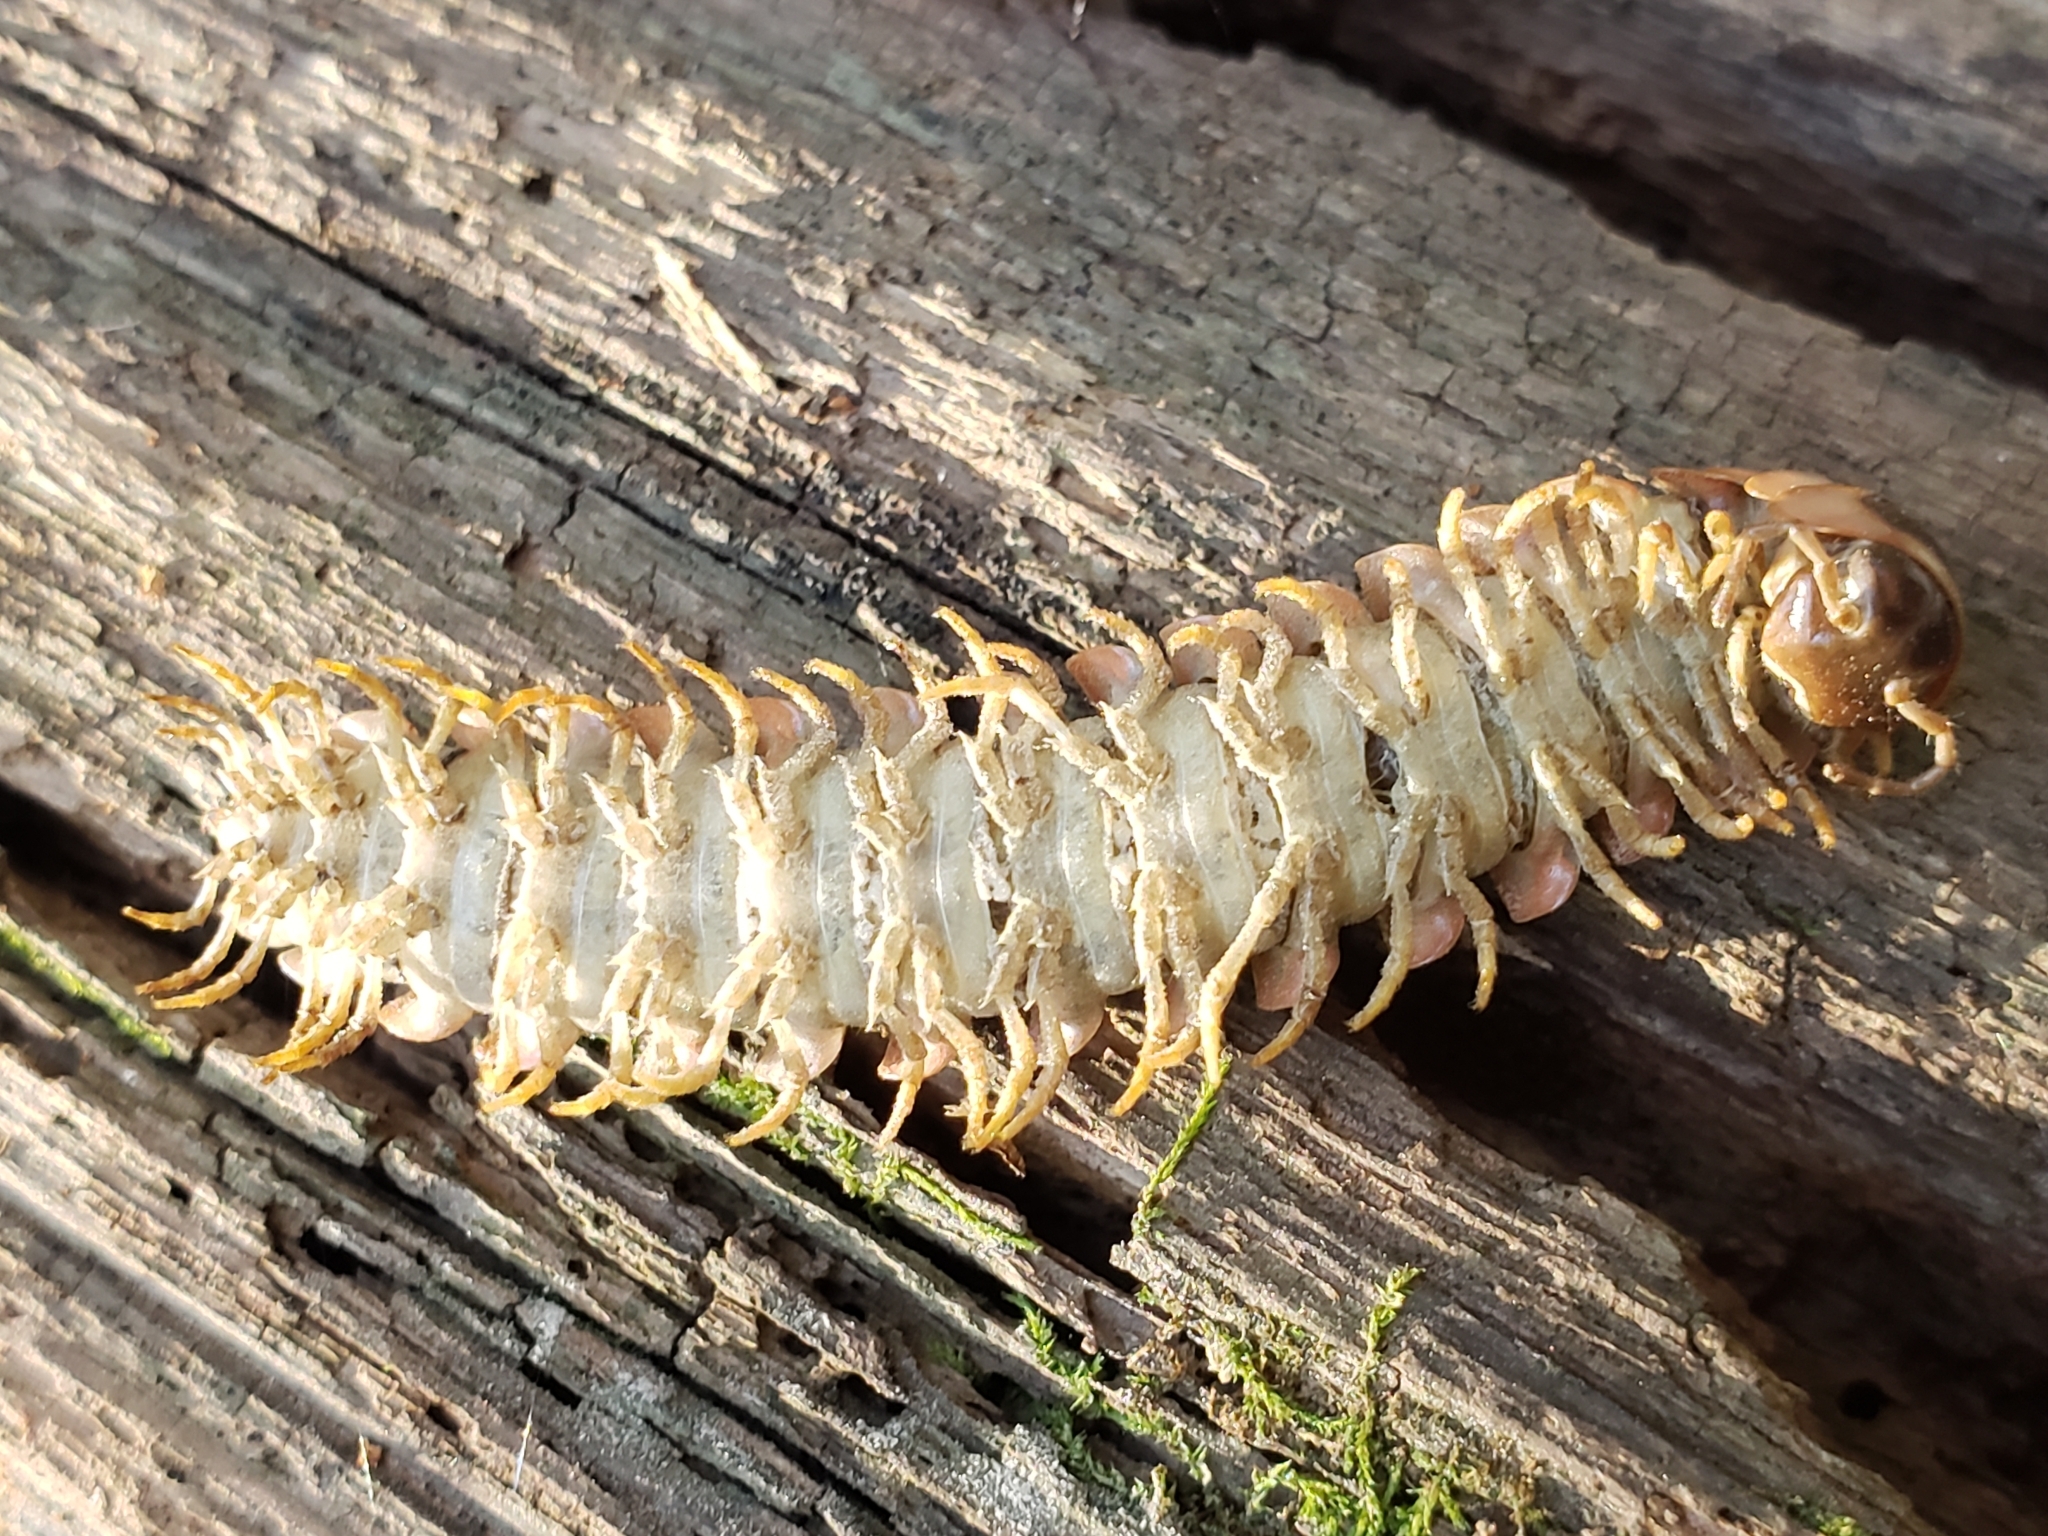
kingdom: Fungi
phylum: Entomophthoromycota
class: Entomophthoromycetes
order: Entomophthorales
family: Entomophthoraceae
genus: Arthrophaga
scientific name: Arthrophaga myriapodina
